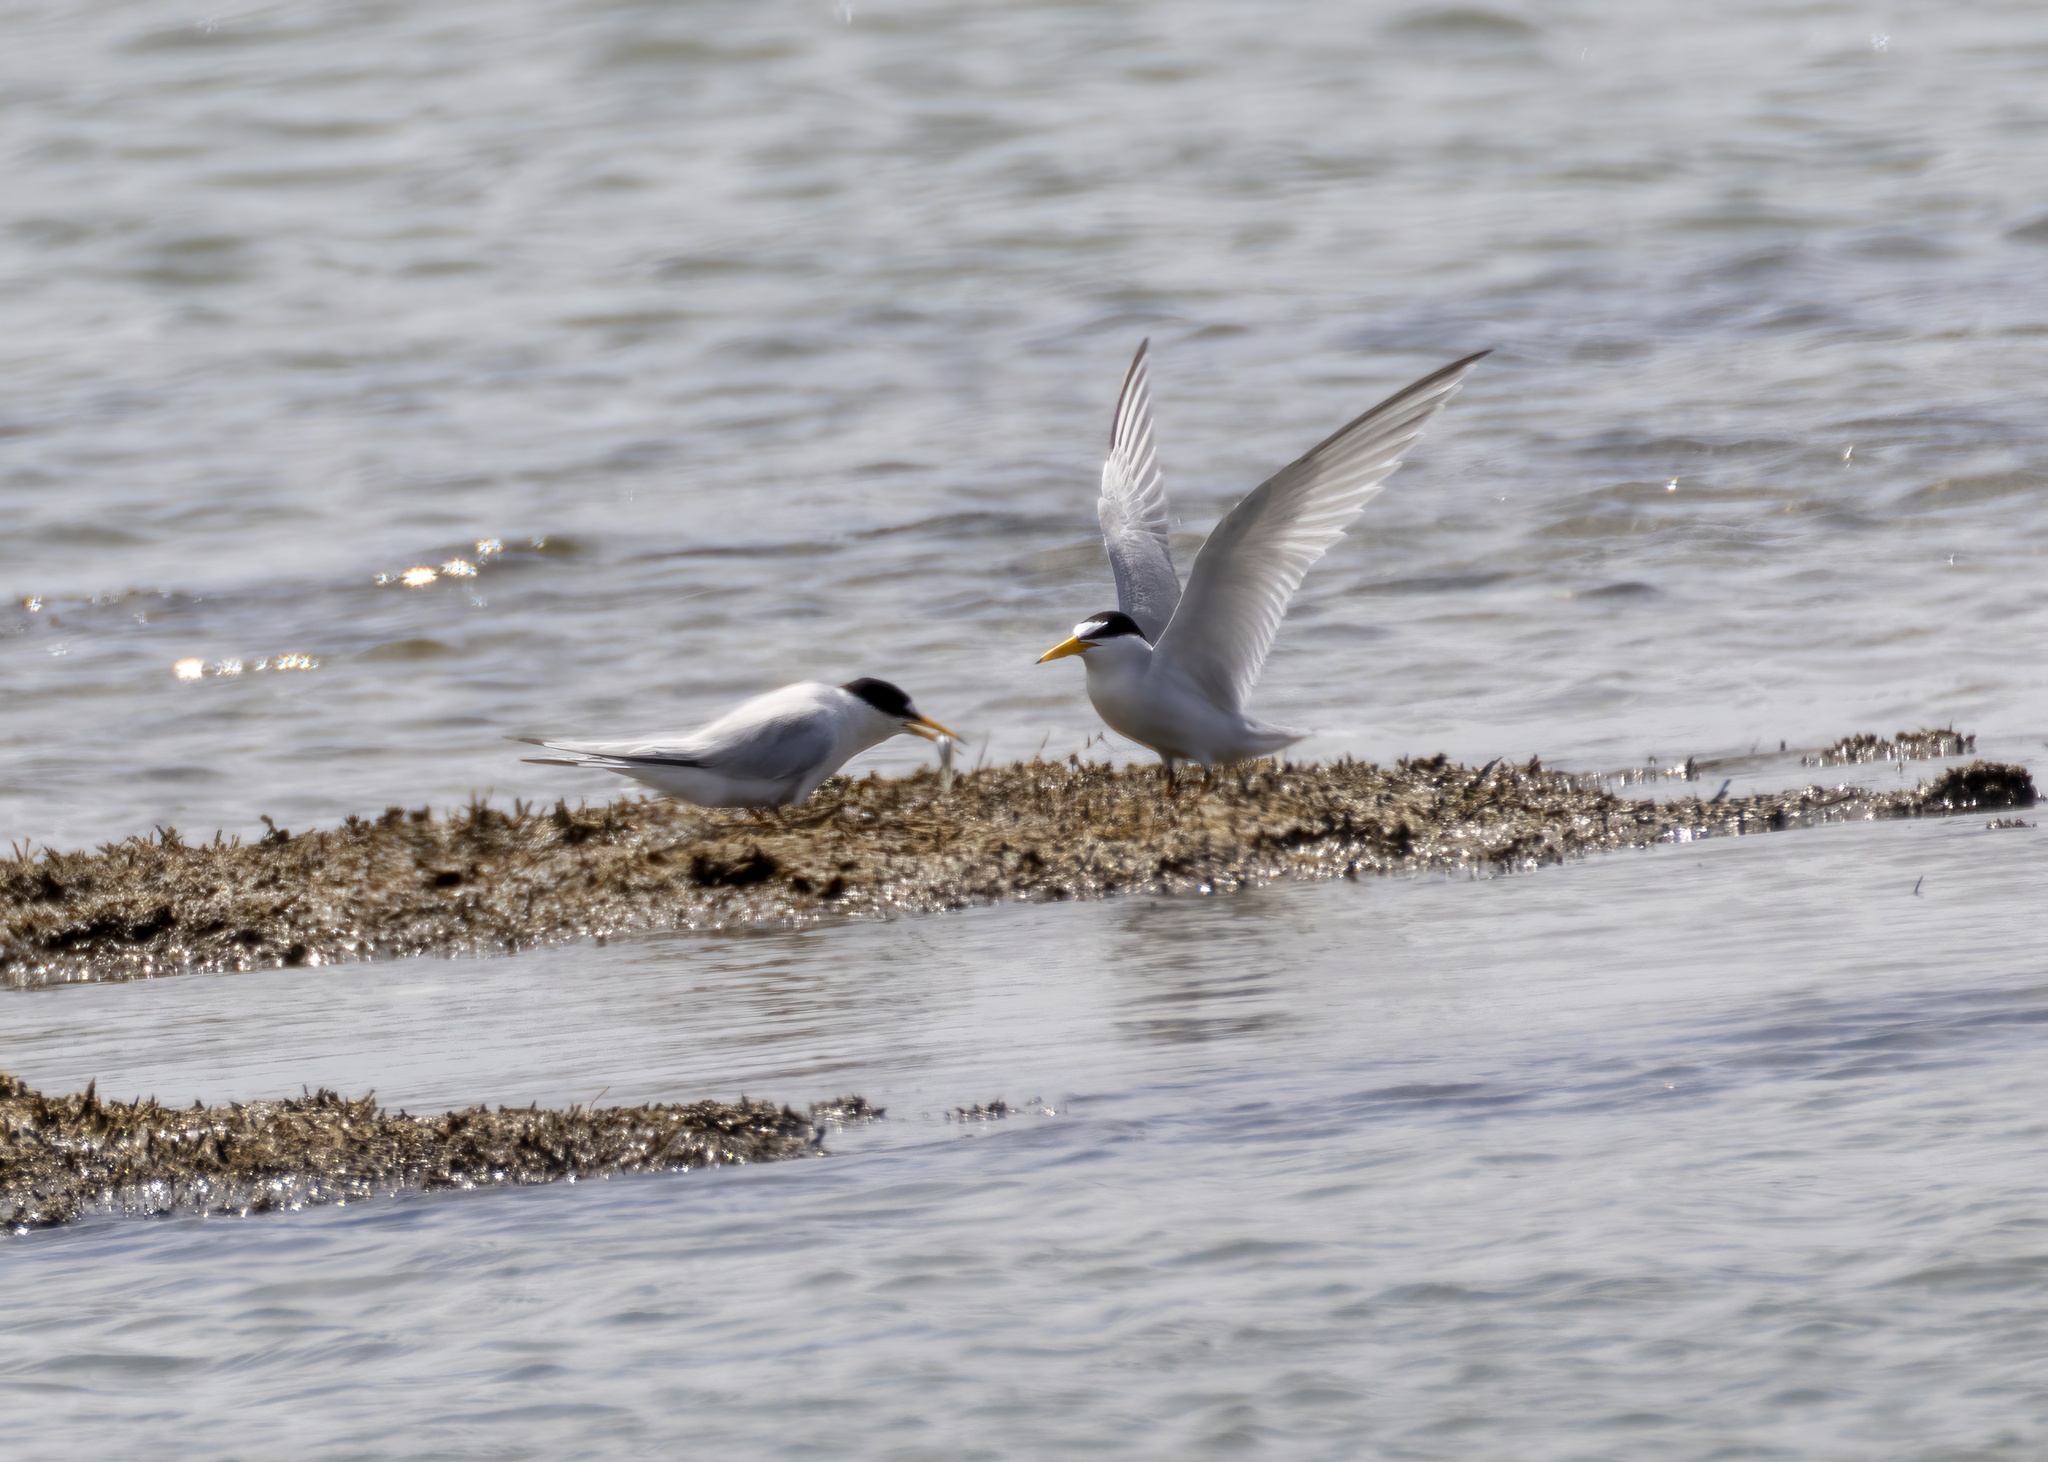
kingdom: Animalia
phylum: Chordata
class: Aves
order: Charadriiformes
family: Laridae
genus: Sternula
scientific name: Sternula antillarum
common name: Least tern
